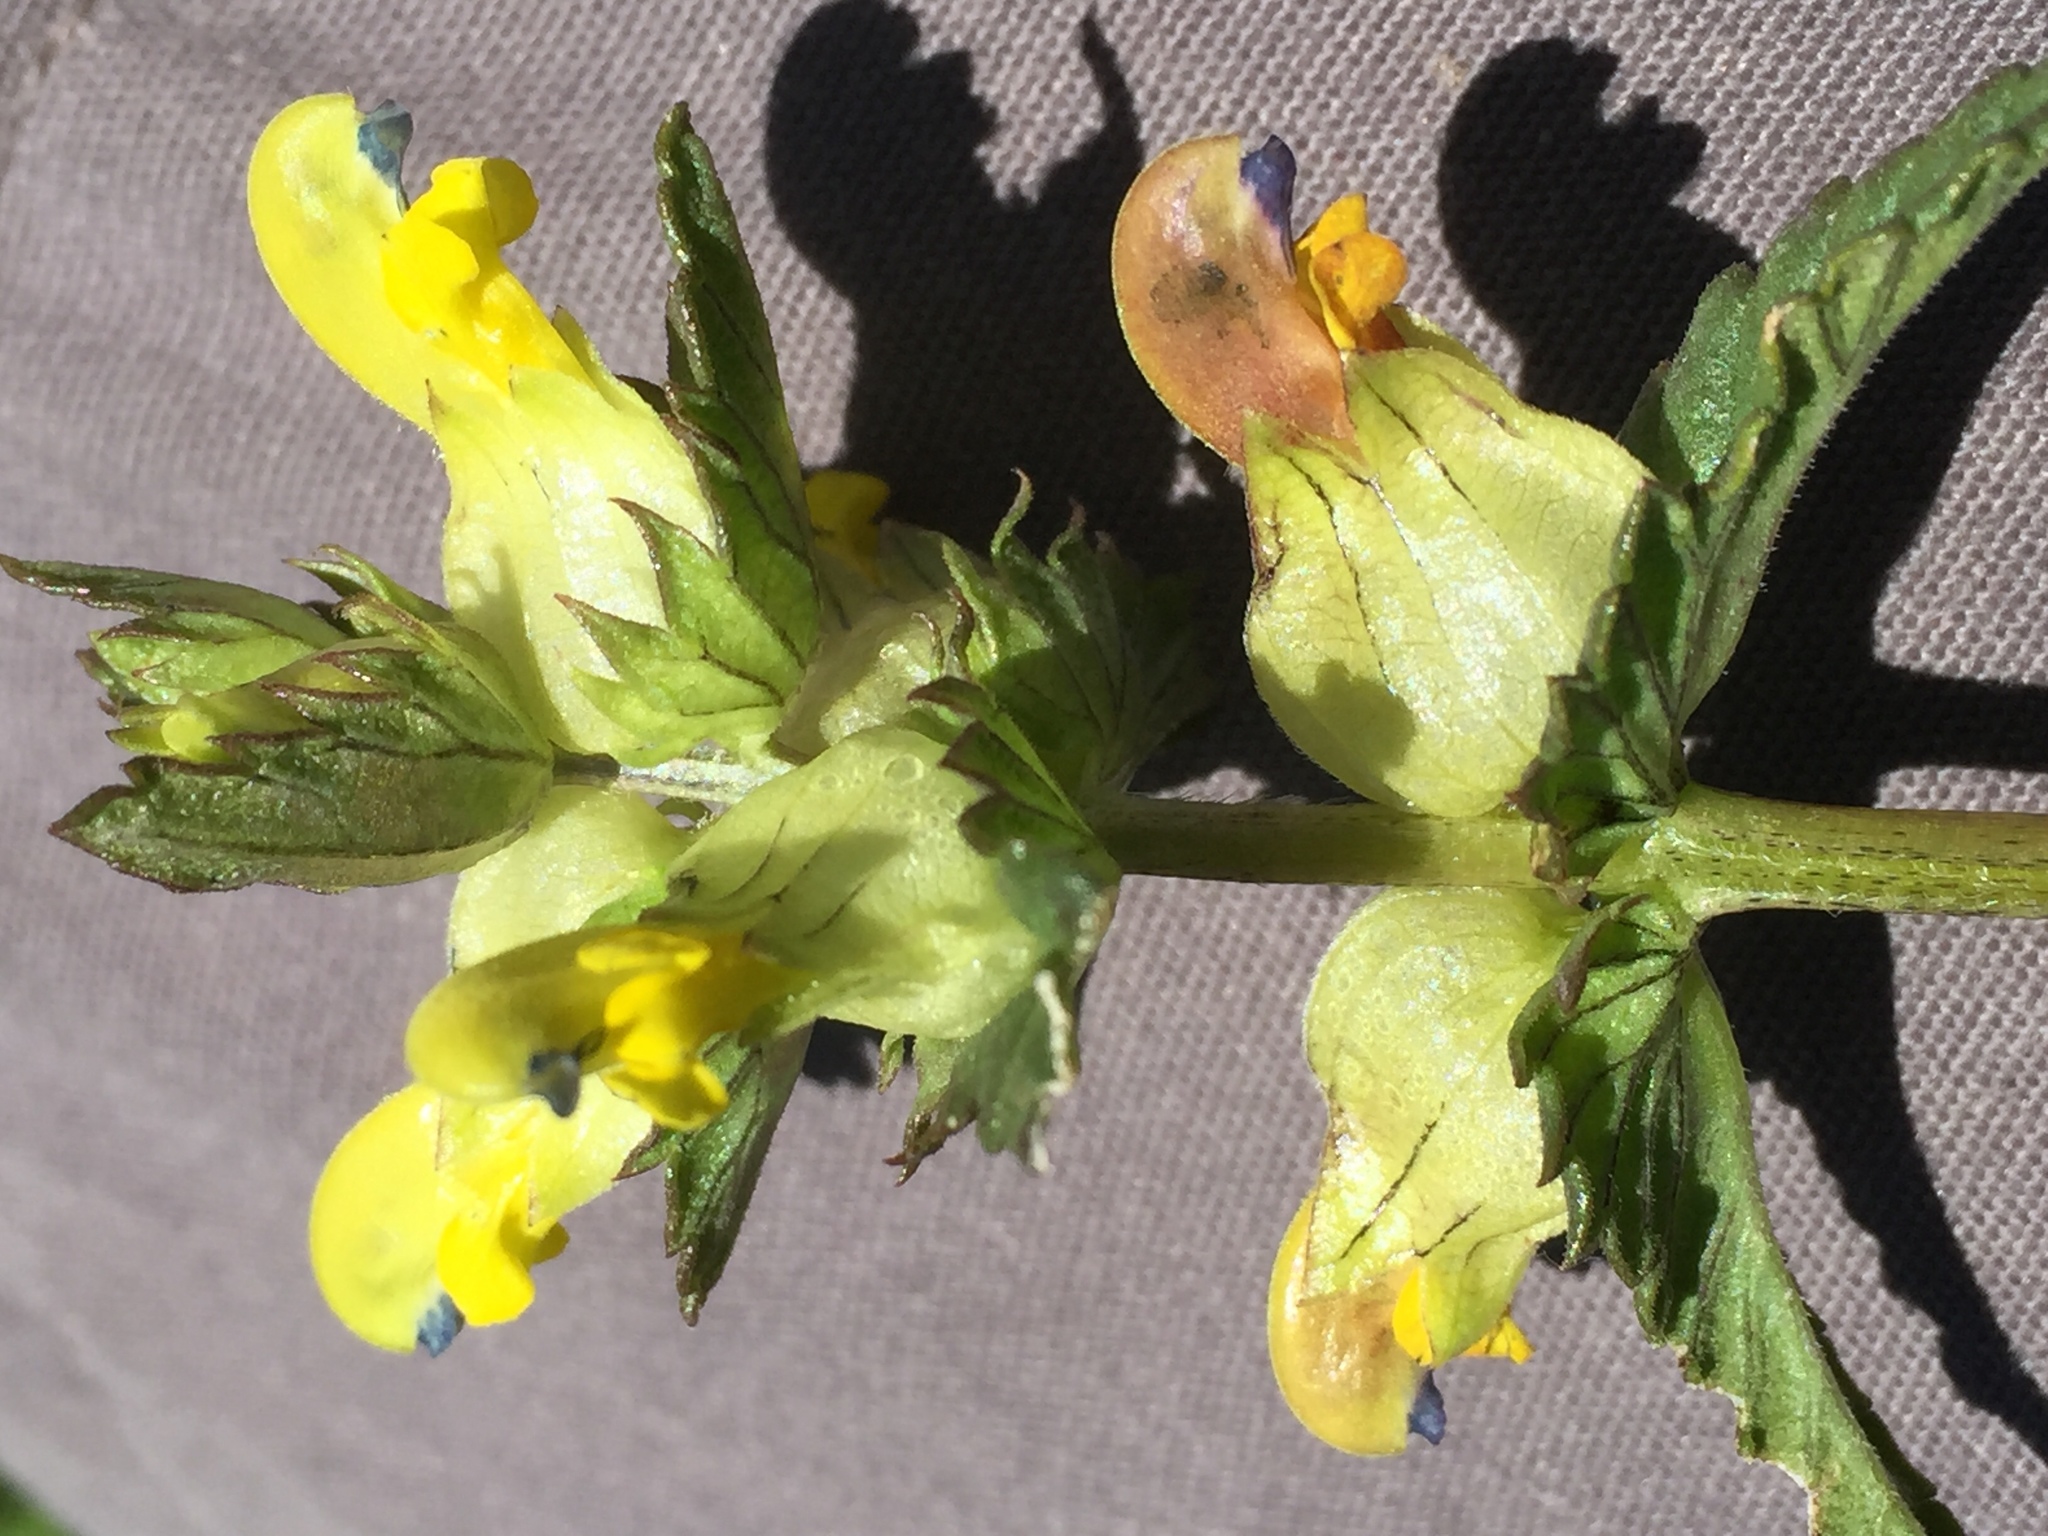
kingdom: Plantae
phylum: Tracheophyta
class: Magnoliopsida
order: Lamiales
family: Orobanchaceae
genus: Rhinanthus
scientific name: Rhinanthus minor
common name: Yellow-rattle
